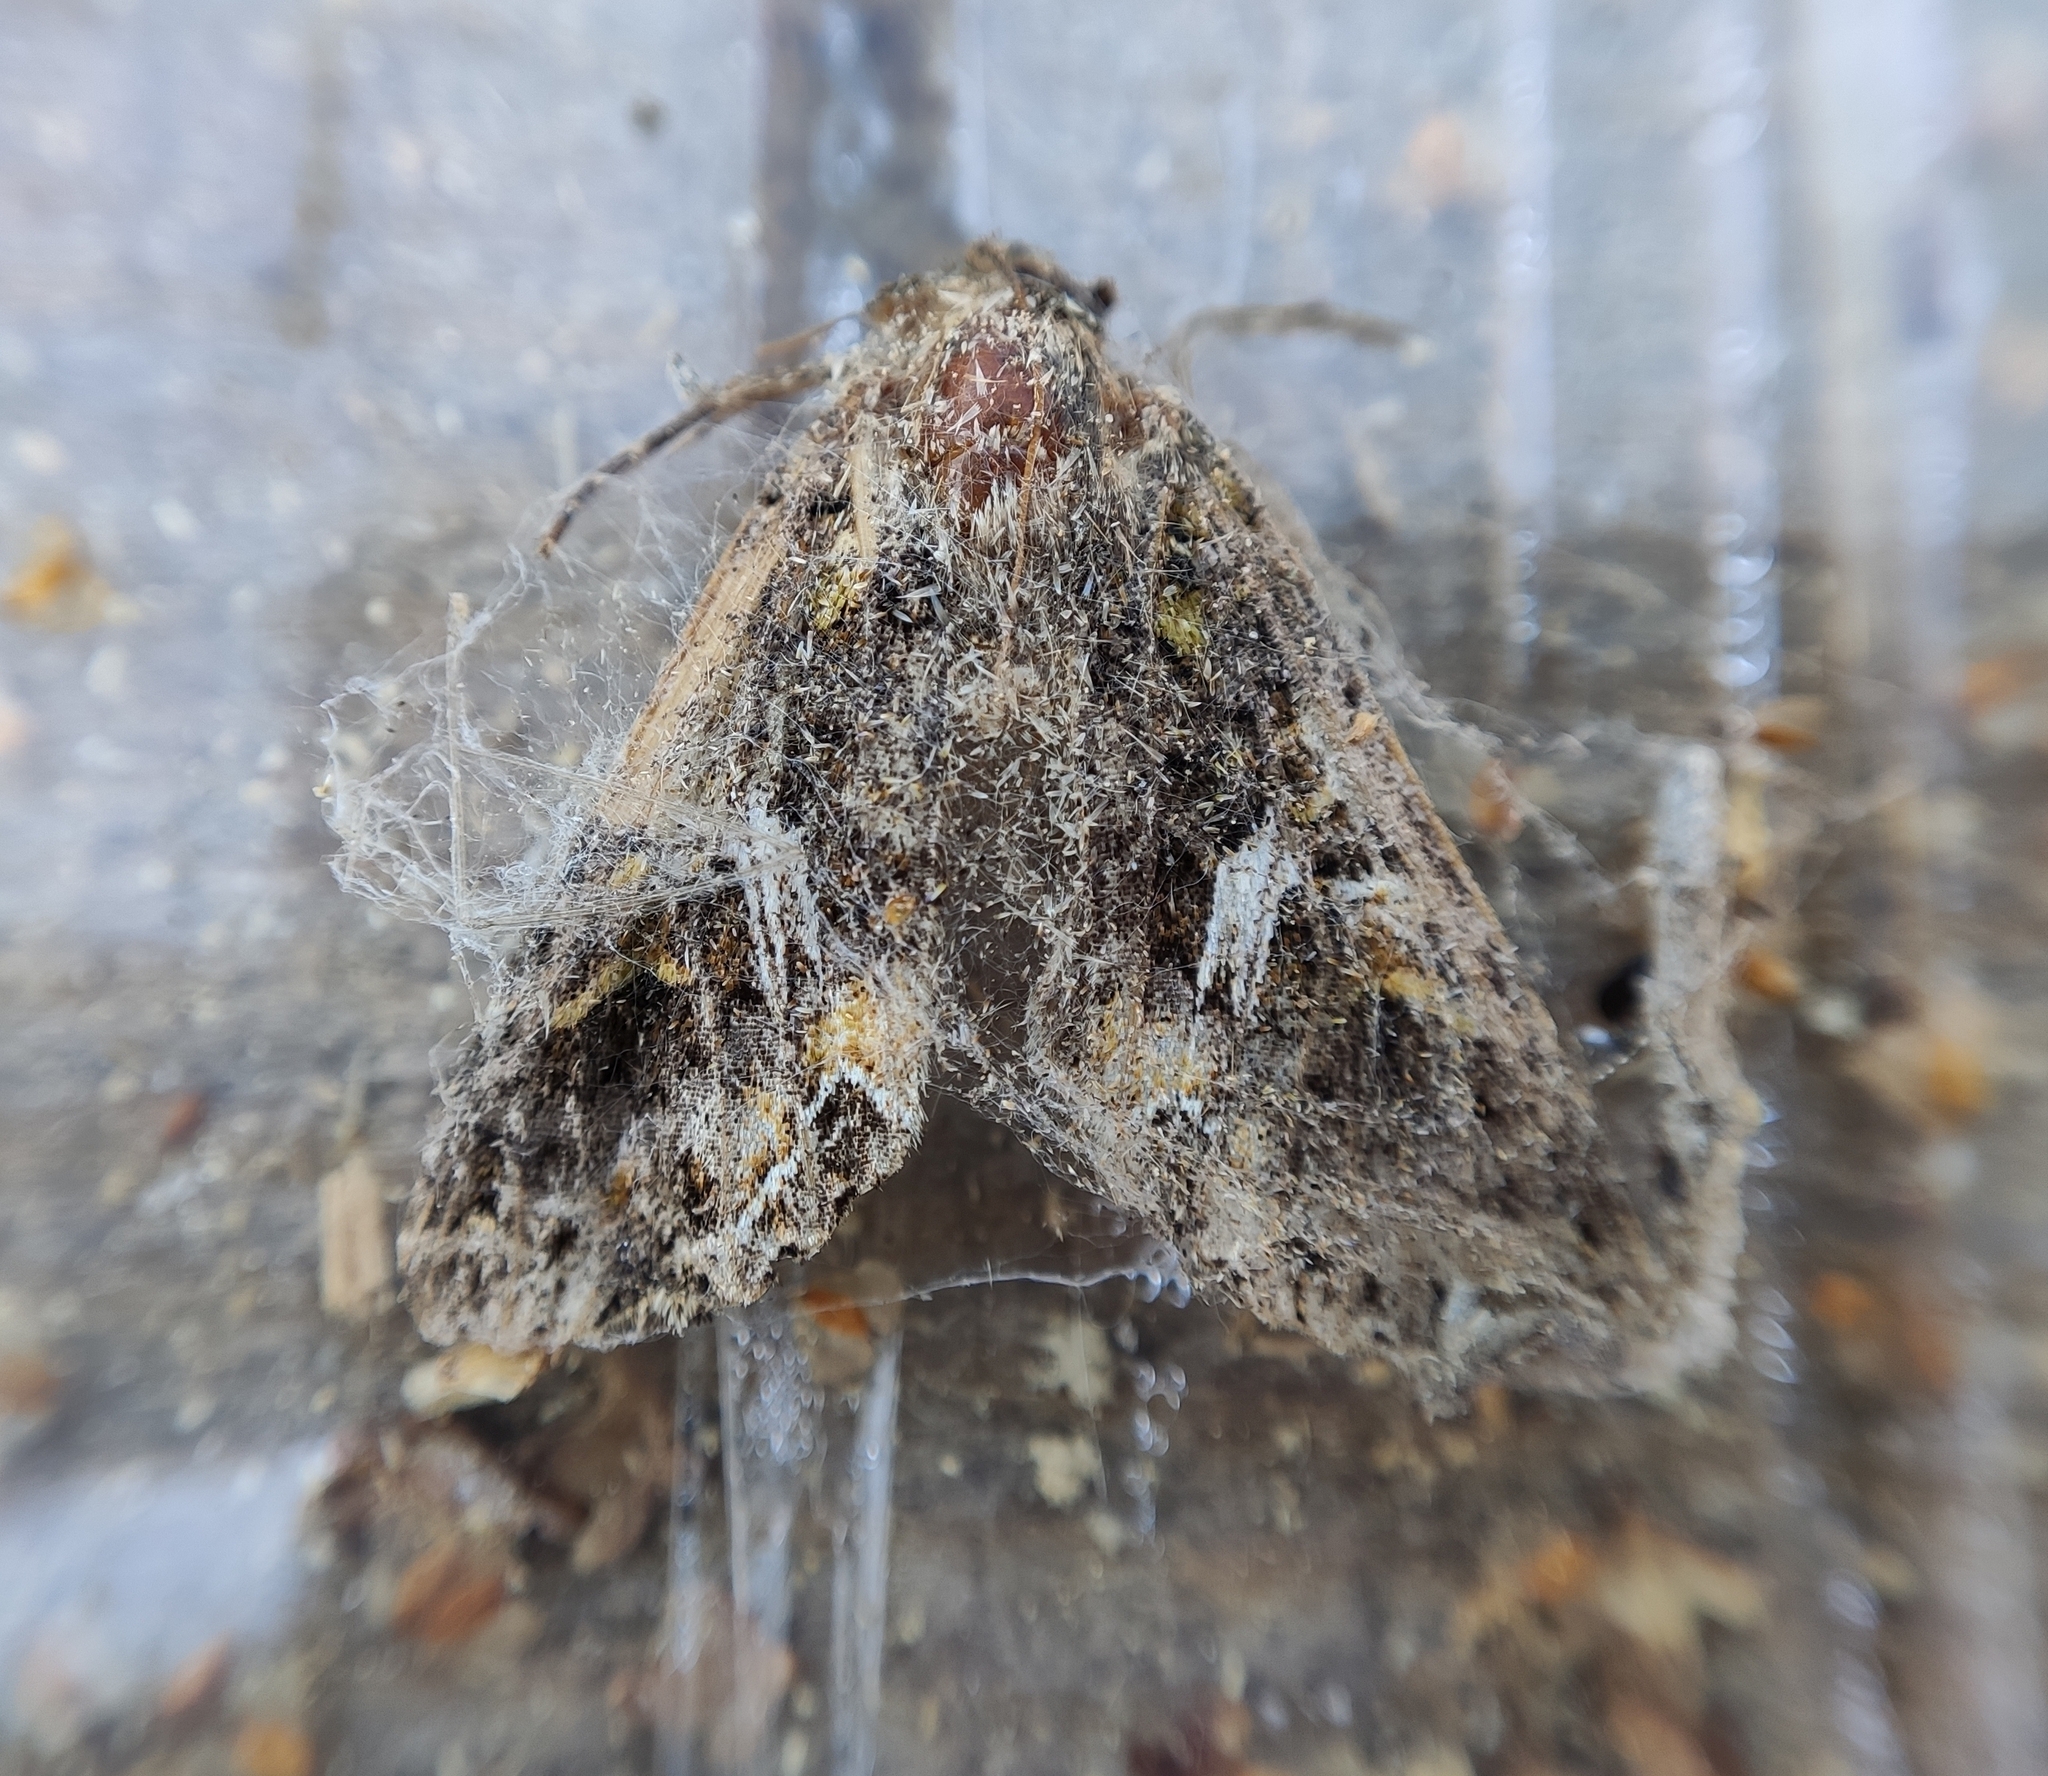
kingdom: Animalia
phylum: Arthropoda
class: Insecta
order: Lepidoptera
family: Noctuidae
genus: Trachea
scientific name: Trachea atriplicis
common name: Orache moth
